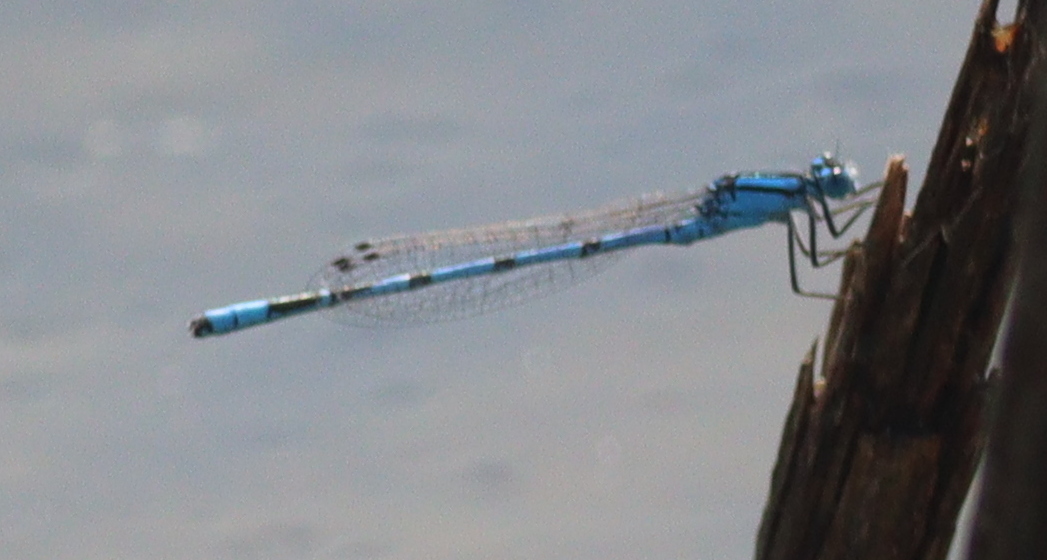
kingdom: Animalia
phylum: Arthropoda
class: Insecta
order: Odonata
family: Coenagrionidae
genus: Enallagma
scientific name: Enallagma cyathigerum
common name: Common blue damselfly
